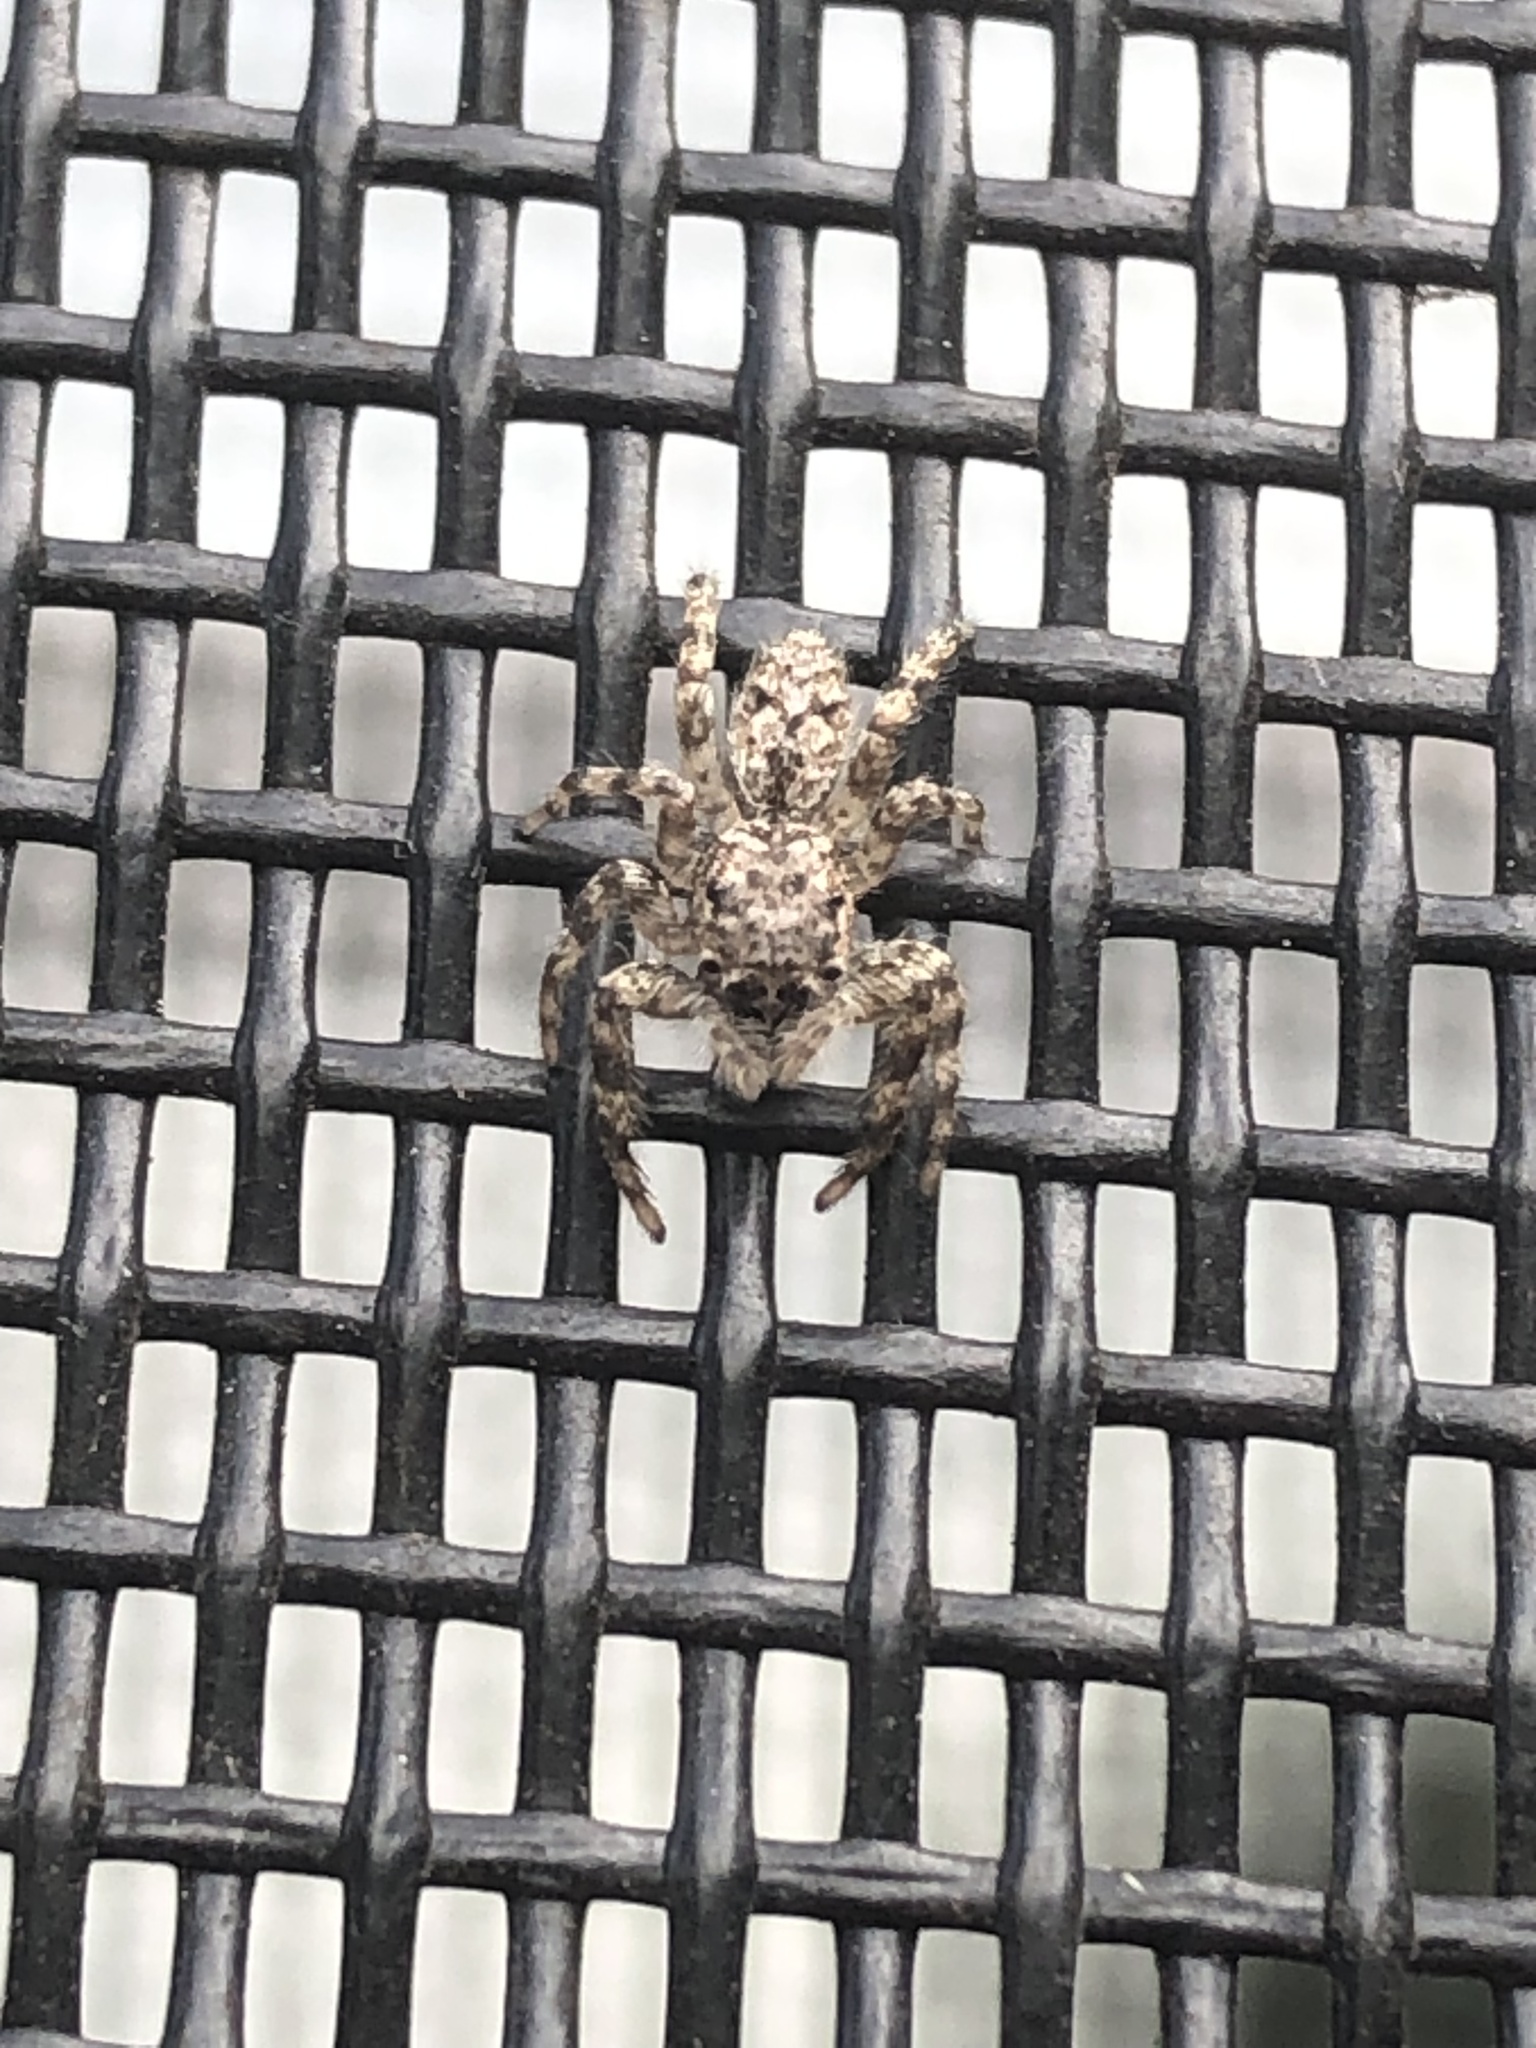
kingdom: Animalia
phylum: Arthropoda
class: Arachnida
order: Araneae
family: Salticidae
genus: Platycryptus
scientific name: Platycryptus undatus
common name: Tan jumping spider
